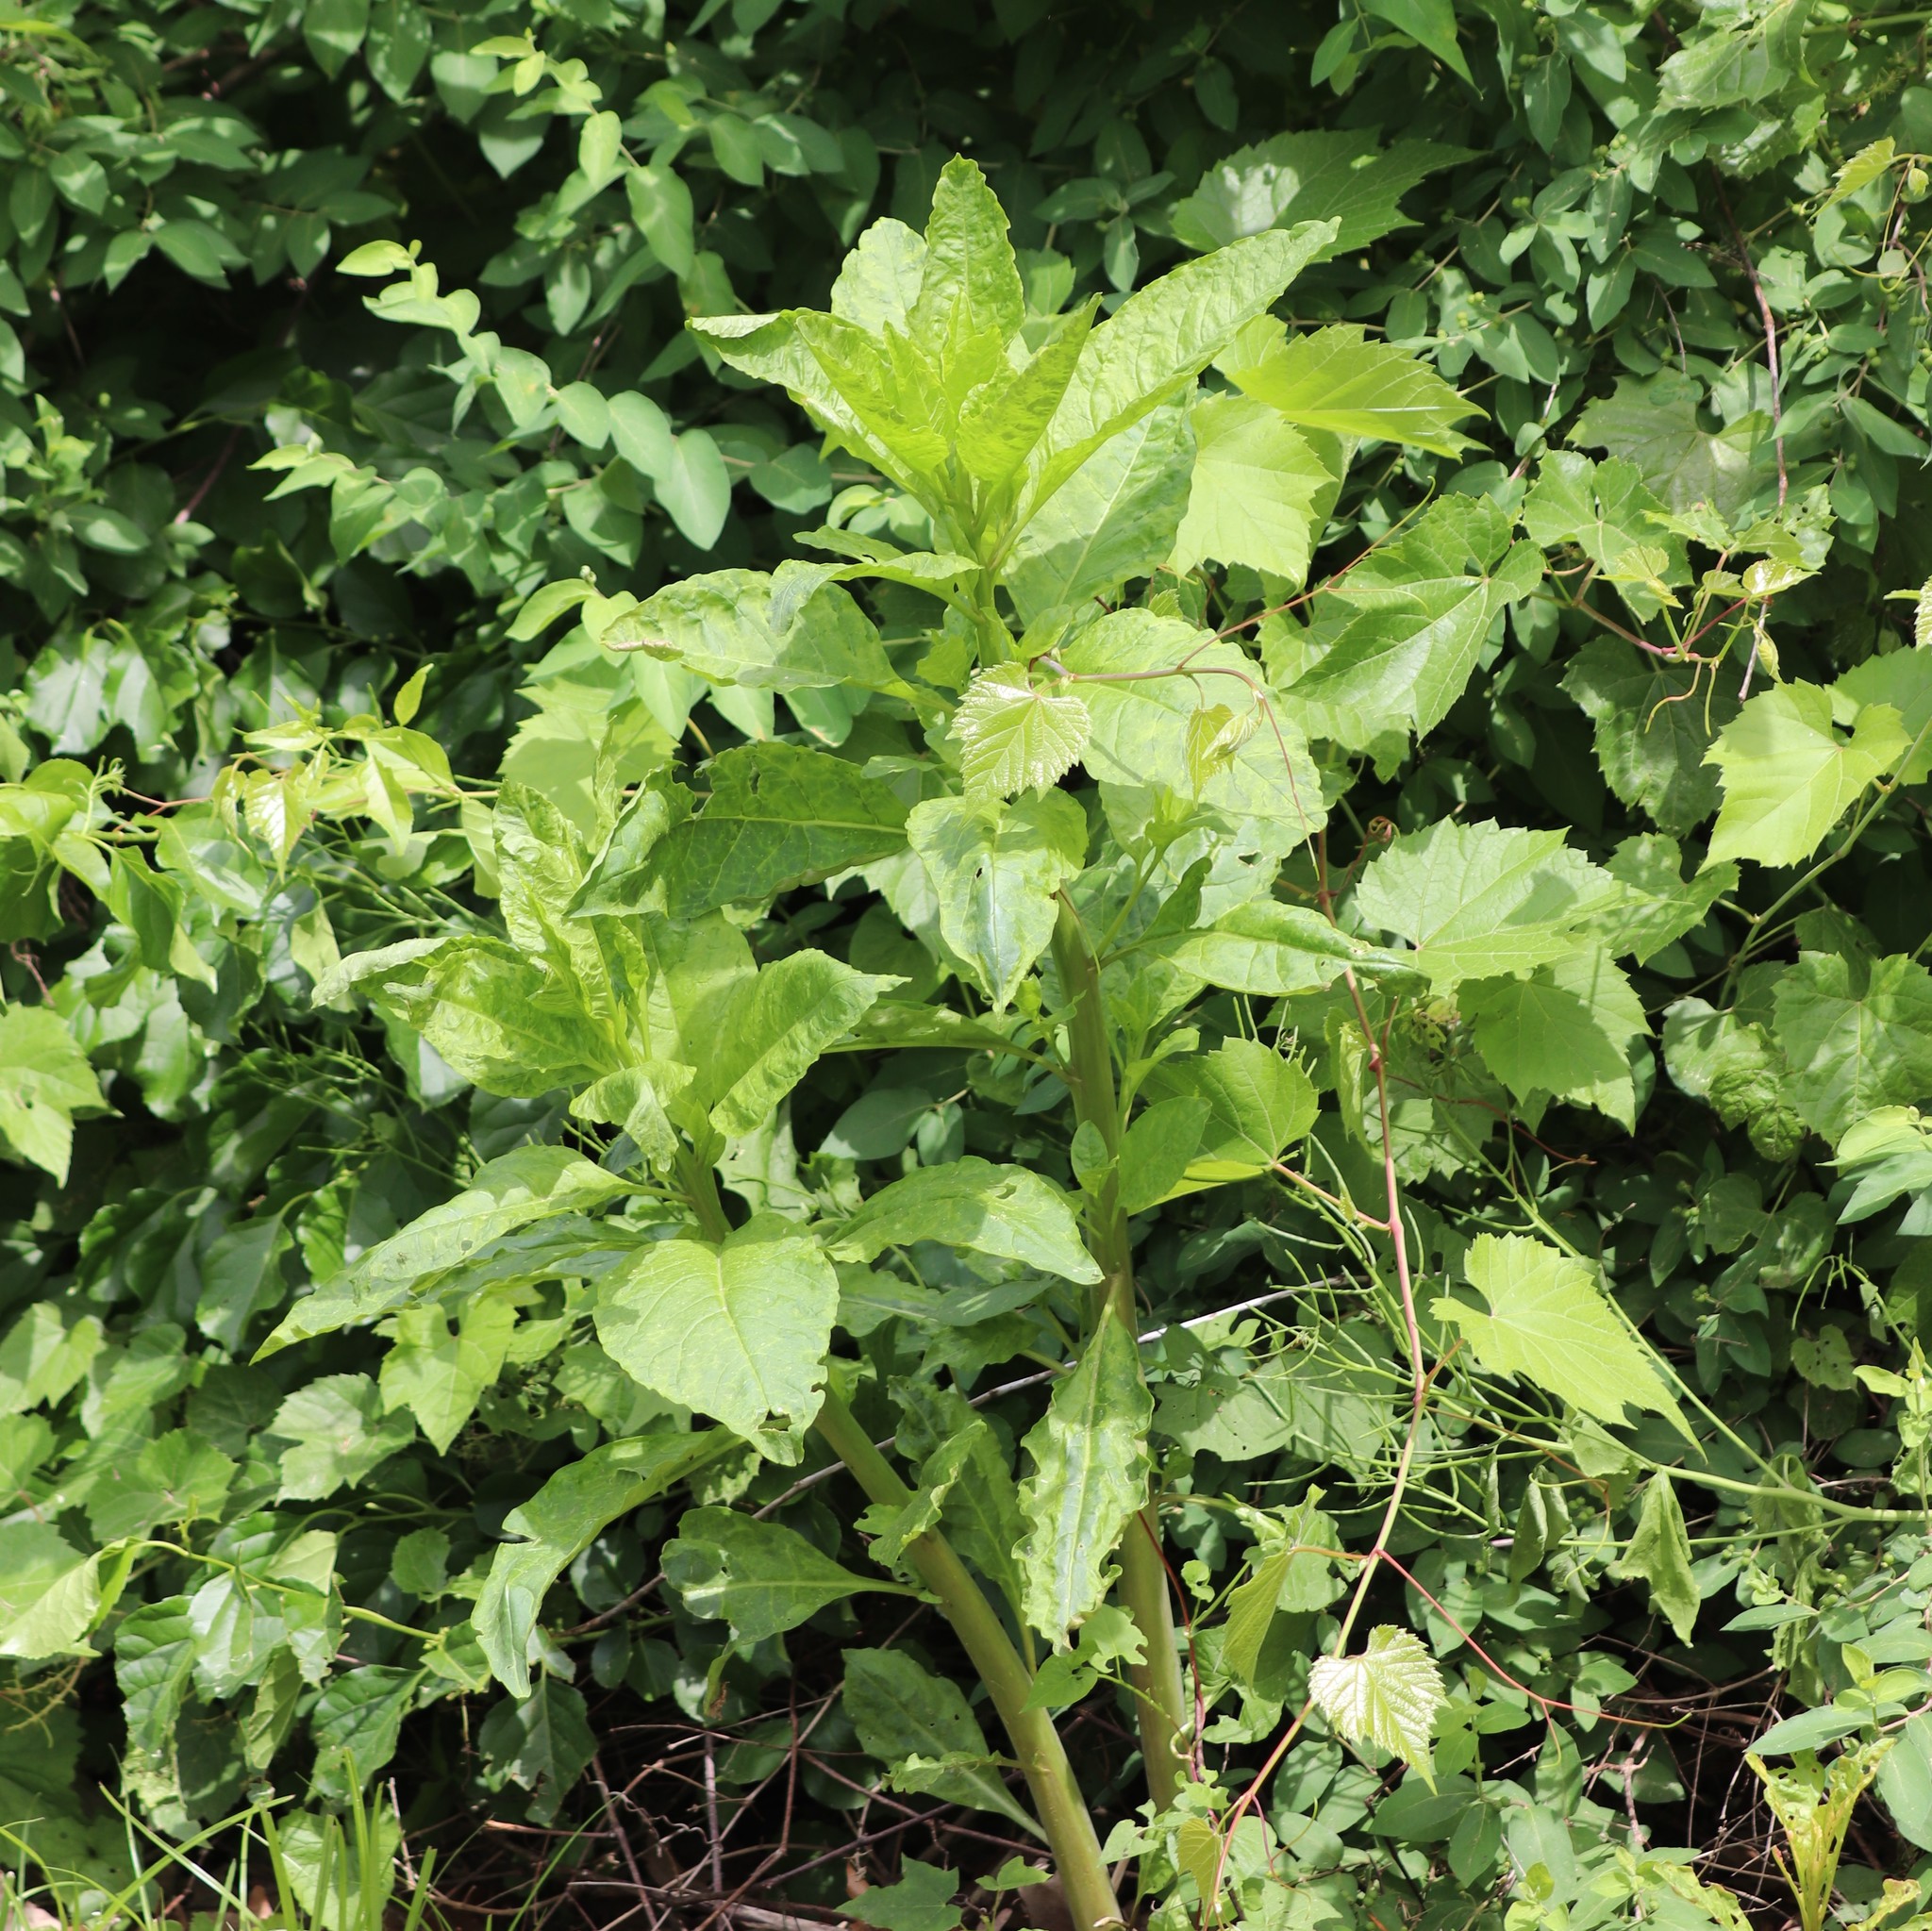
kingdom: Plantae
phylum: Tracheophyta
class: Magnoliopsida
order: Caryophyllales
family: Phytolaccaceae
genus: Phytolacca
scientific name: Phytolacca americana
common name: American pokeweed
